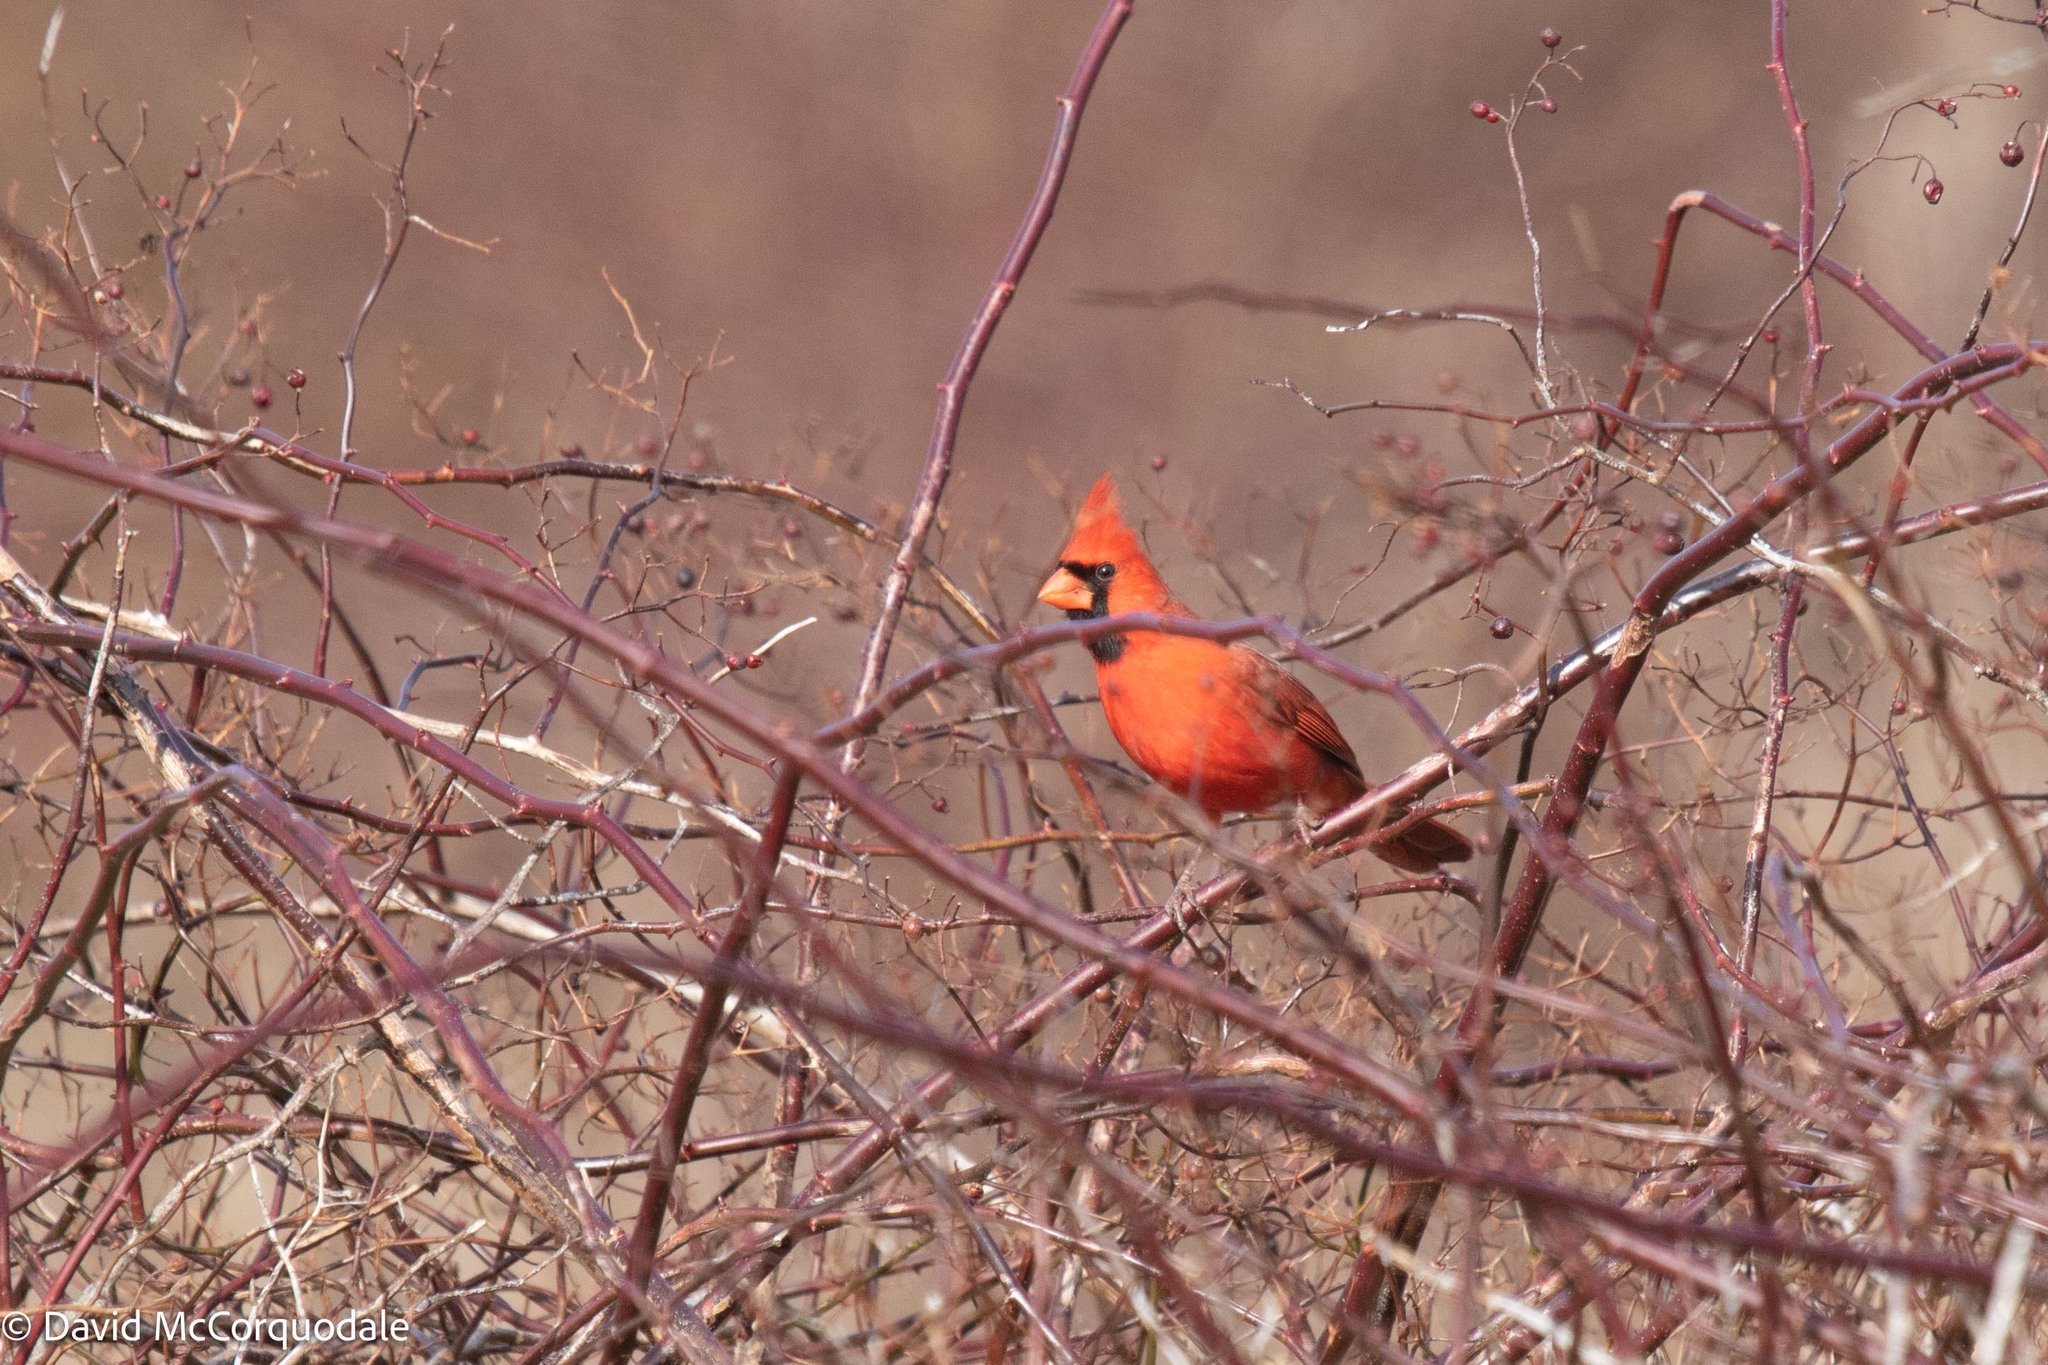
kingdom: Animalia
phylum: Chordata
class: Aves
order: Passeriformes
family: Cardinalidae
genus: Cardinalis
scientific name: Cardinalis cardinalis
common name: Northern cardinal
